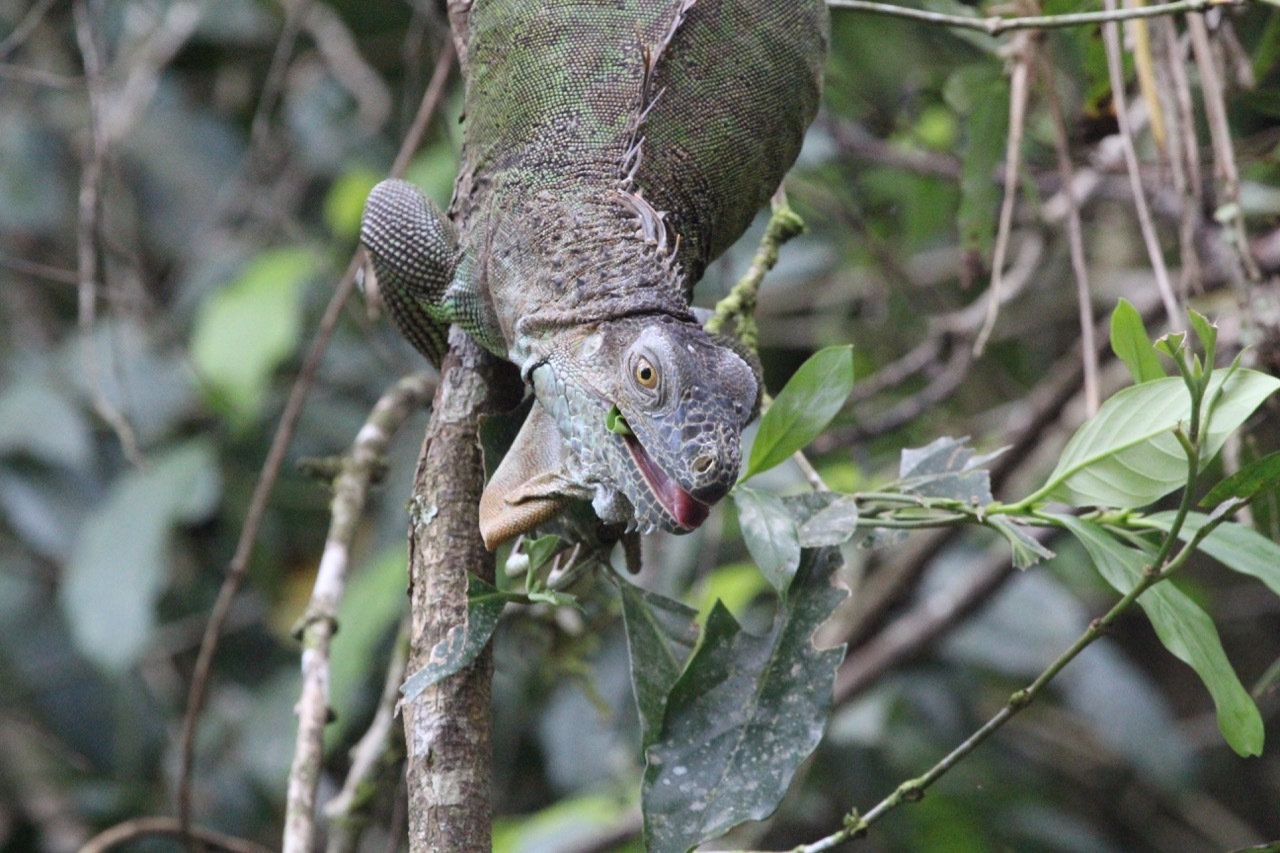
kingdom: Animalia
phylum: Chordata
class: Squamata
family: Iguanidae
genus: Iguana
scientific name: Iguana iguana
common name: Green iguana
